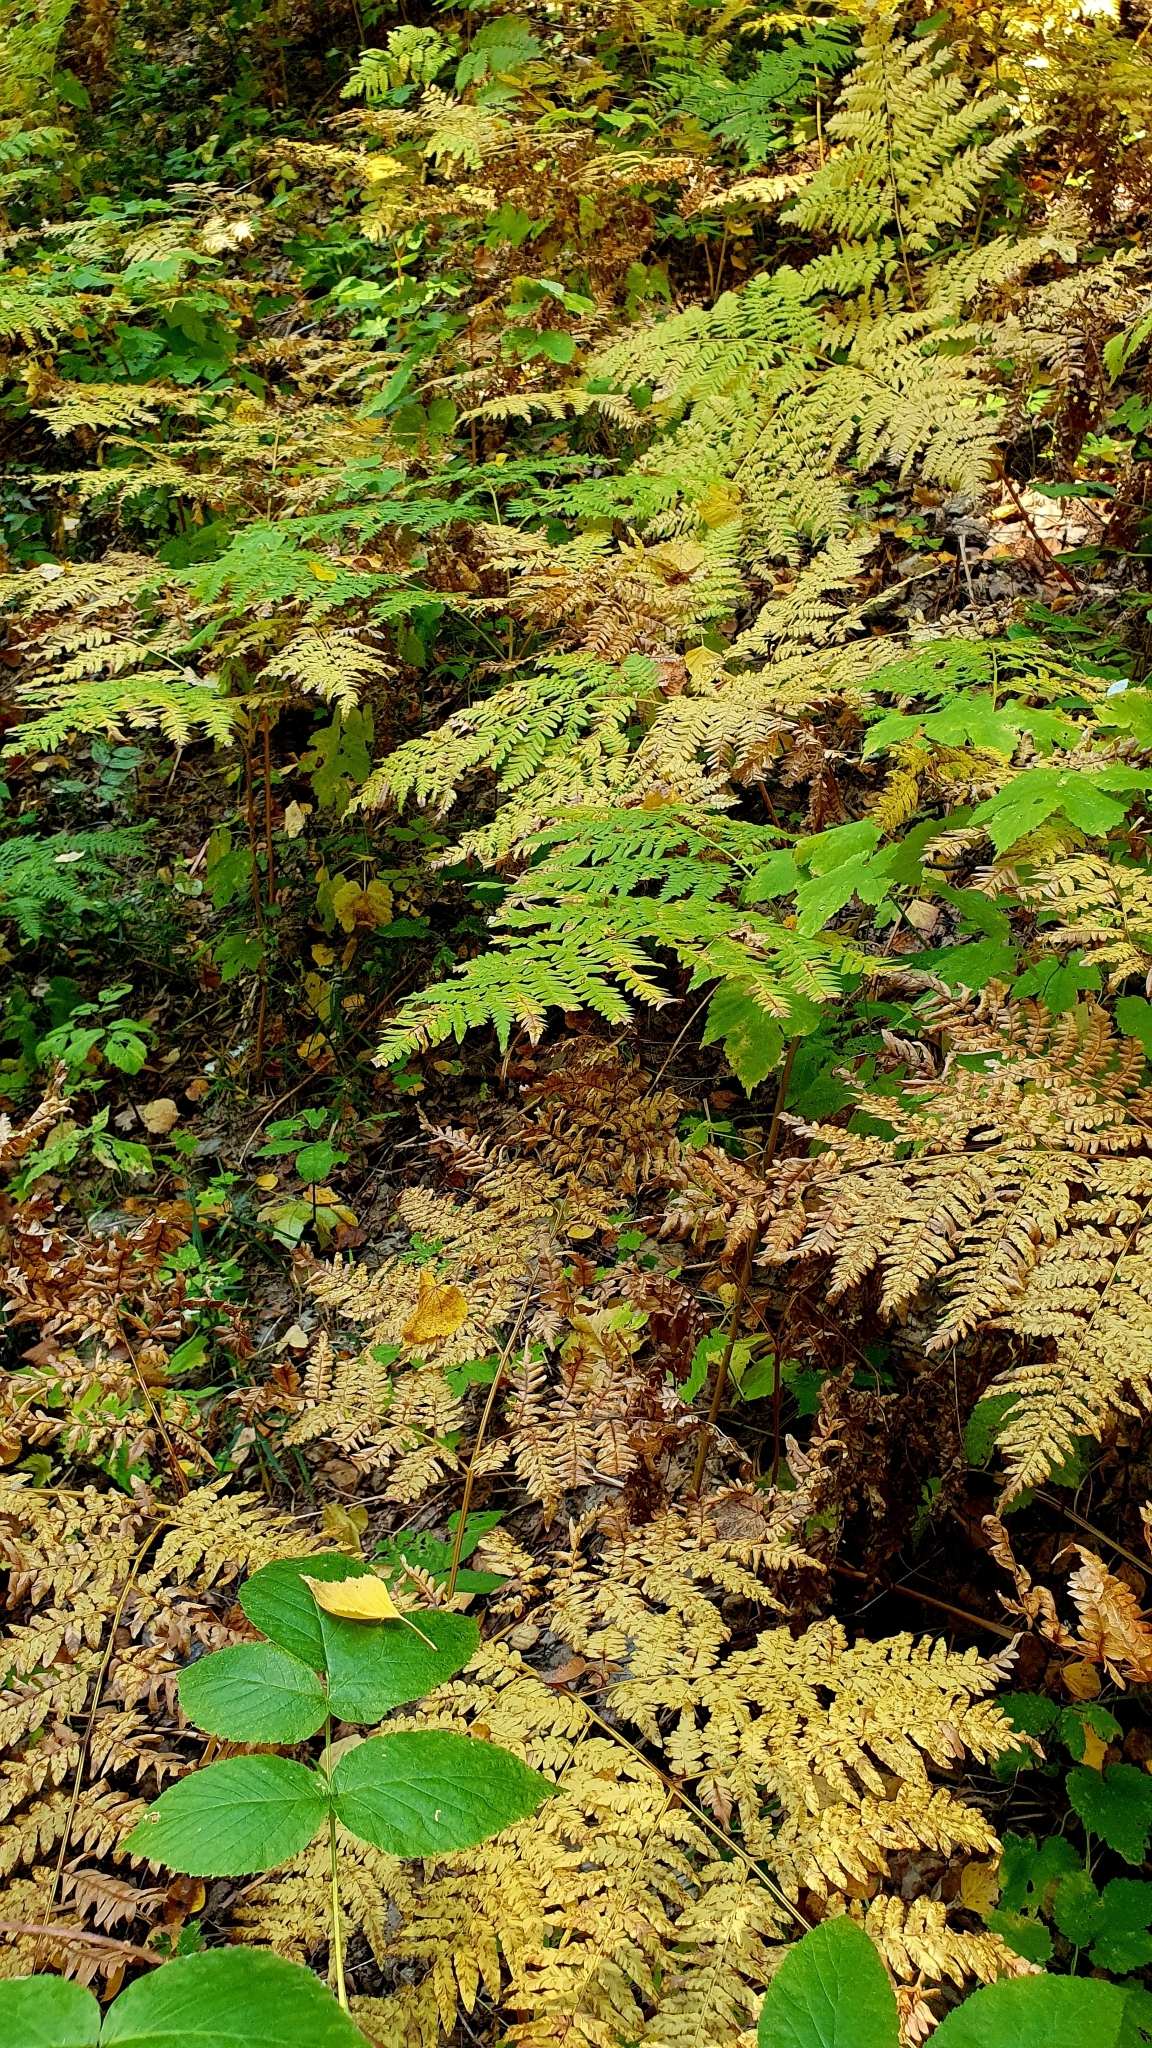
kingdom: Plantae
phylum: Tracheophyta
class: Polypodiopsida
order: Polypodiales
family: Dennstaedtiaceae
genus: Pteridium
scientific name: Pteridium aquilinum
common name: Bracken
